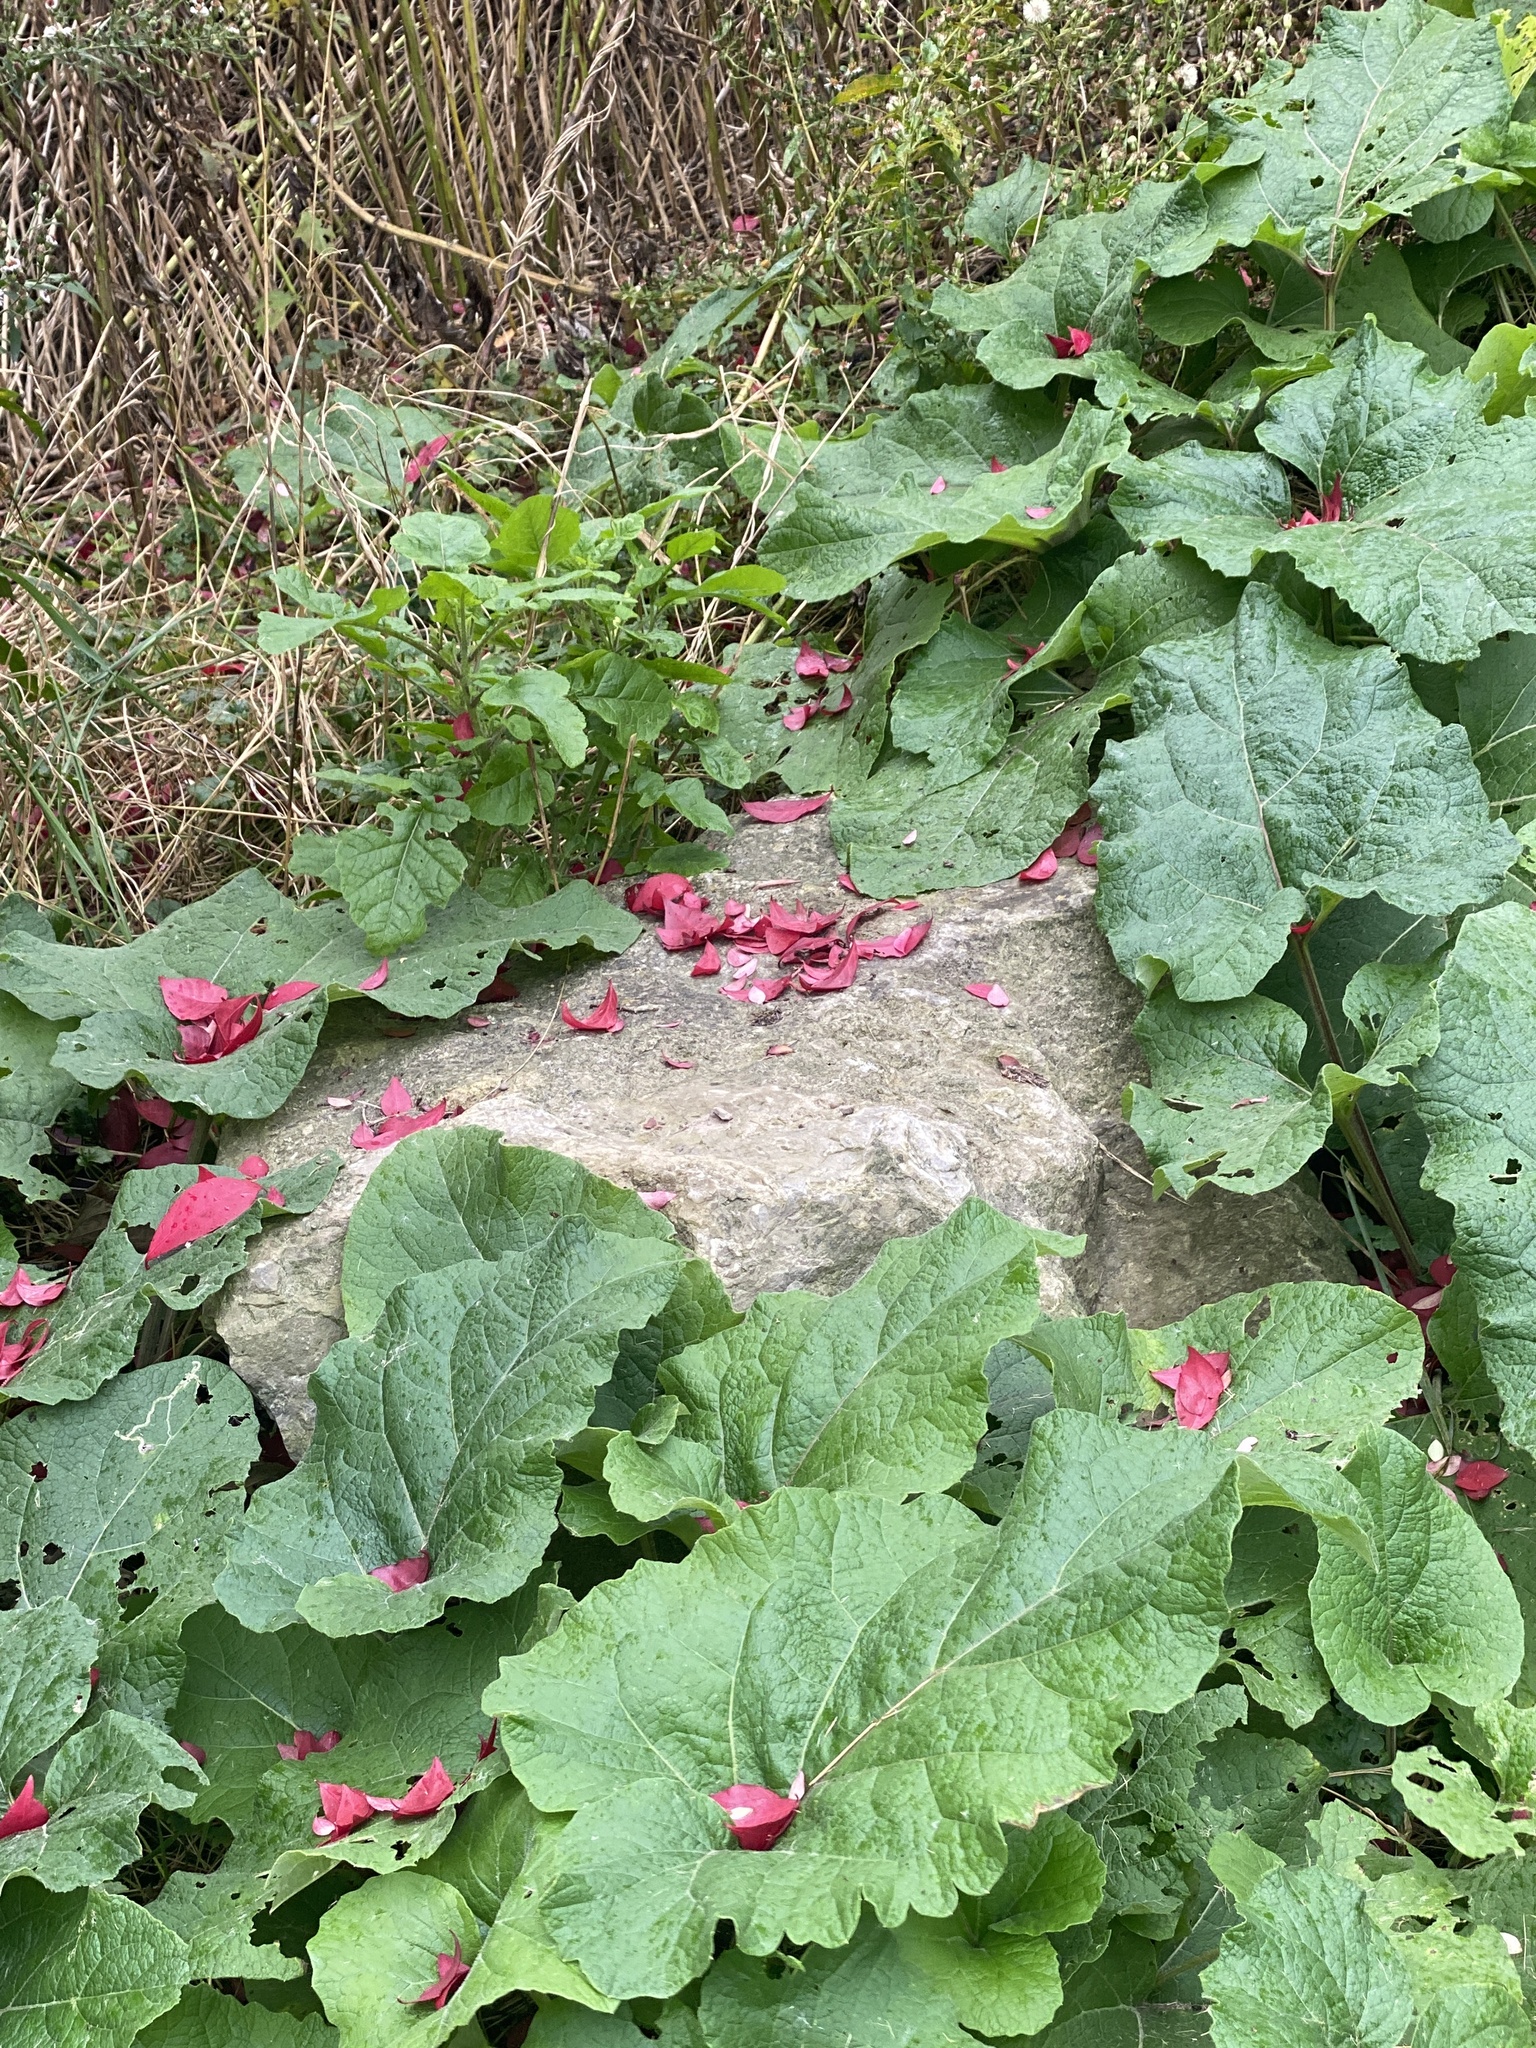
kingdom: Plantae
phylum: Tracheophyta
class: Magnoliopsida
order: Asterales
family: Asteraceae
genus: Arctium
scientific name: Arctium minus
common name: Lesser burdock
